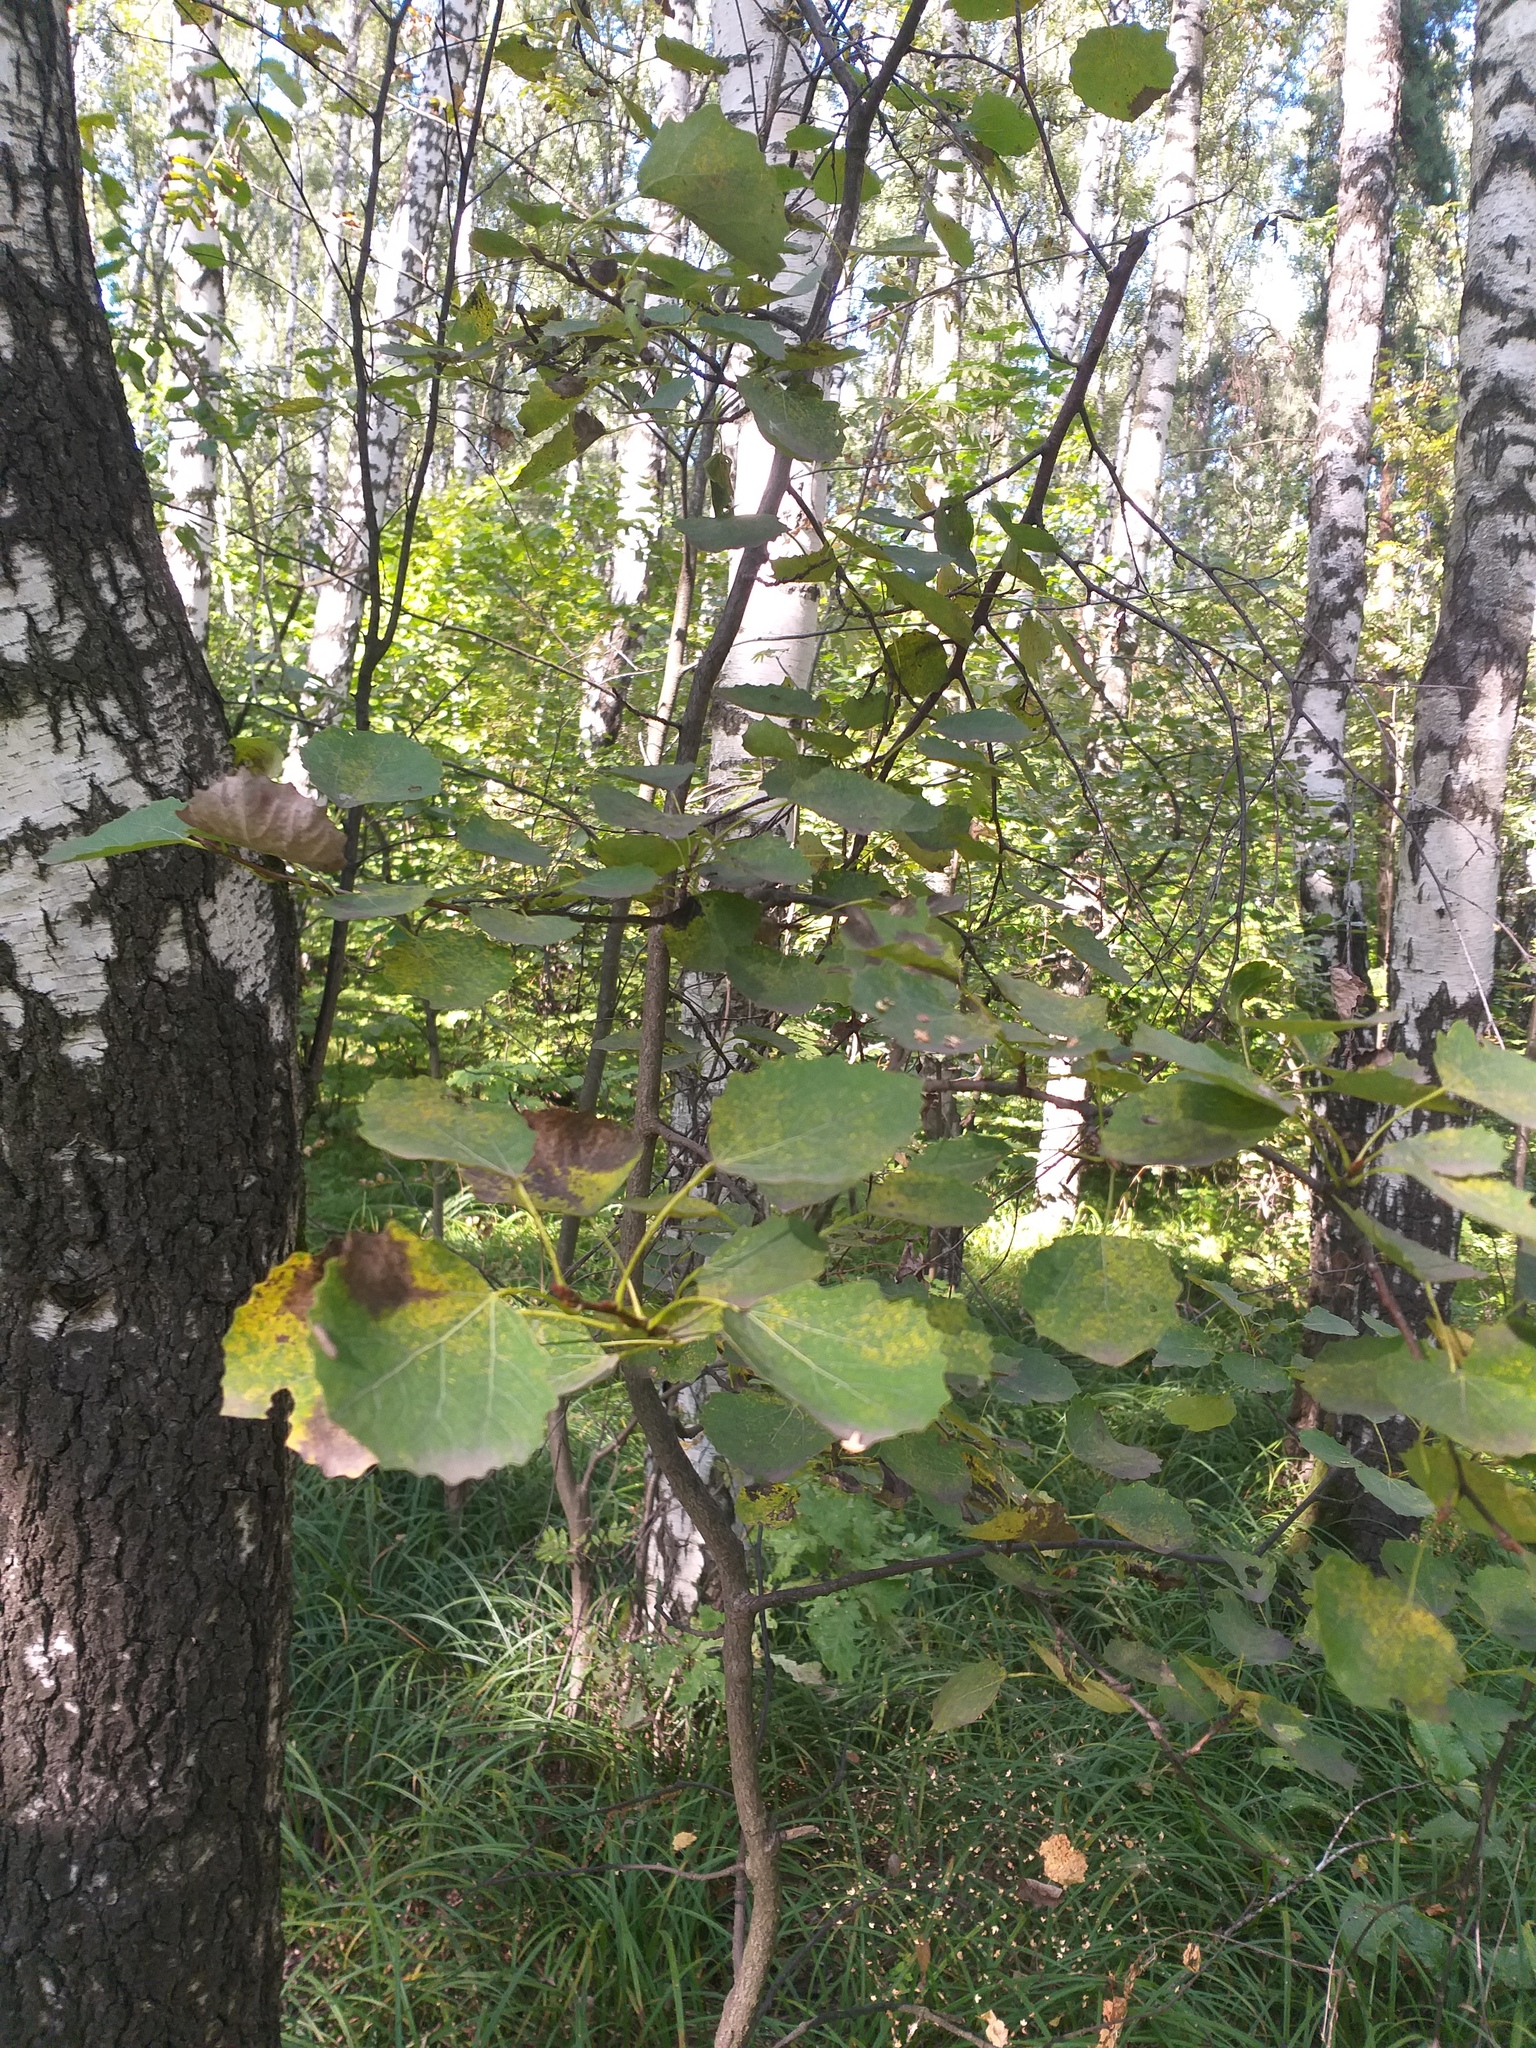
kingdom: Plantae
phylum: Tracheophyta
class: Magnoliopsida
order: Malpighiales
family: Salicaceae
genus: Populus
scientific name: Populus tremula
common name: European aspen
